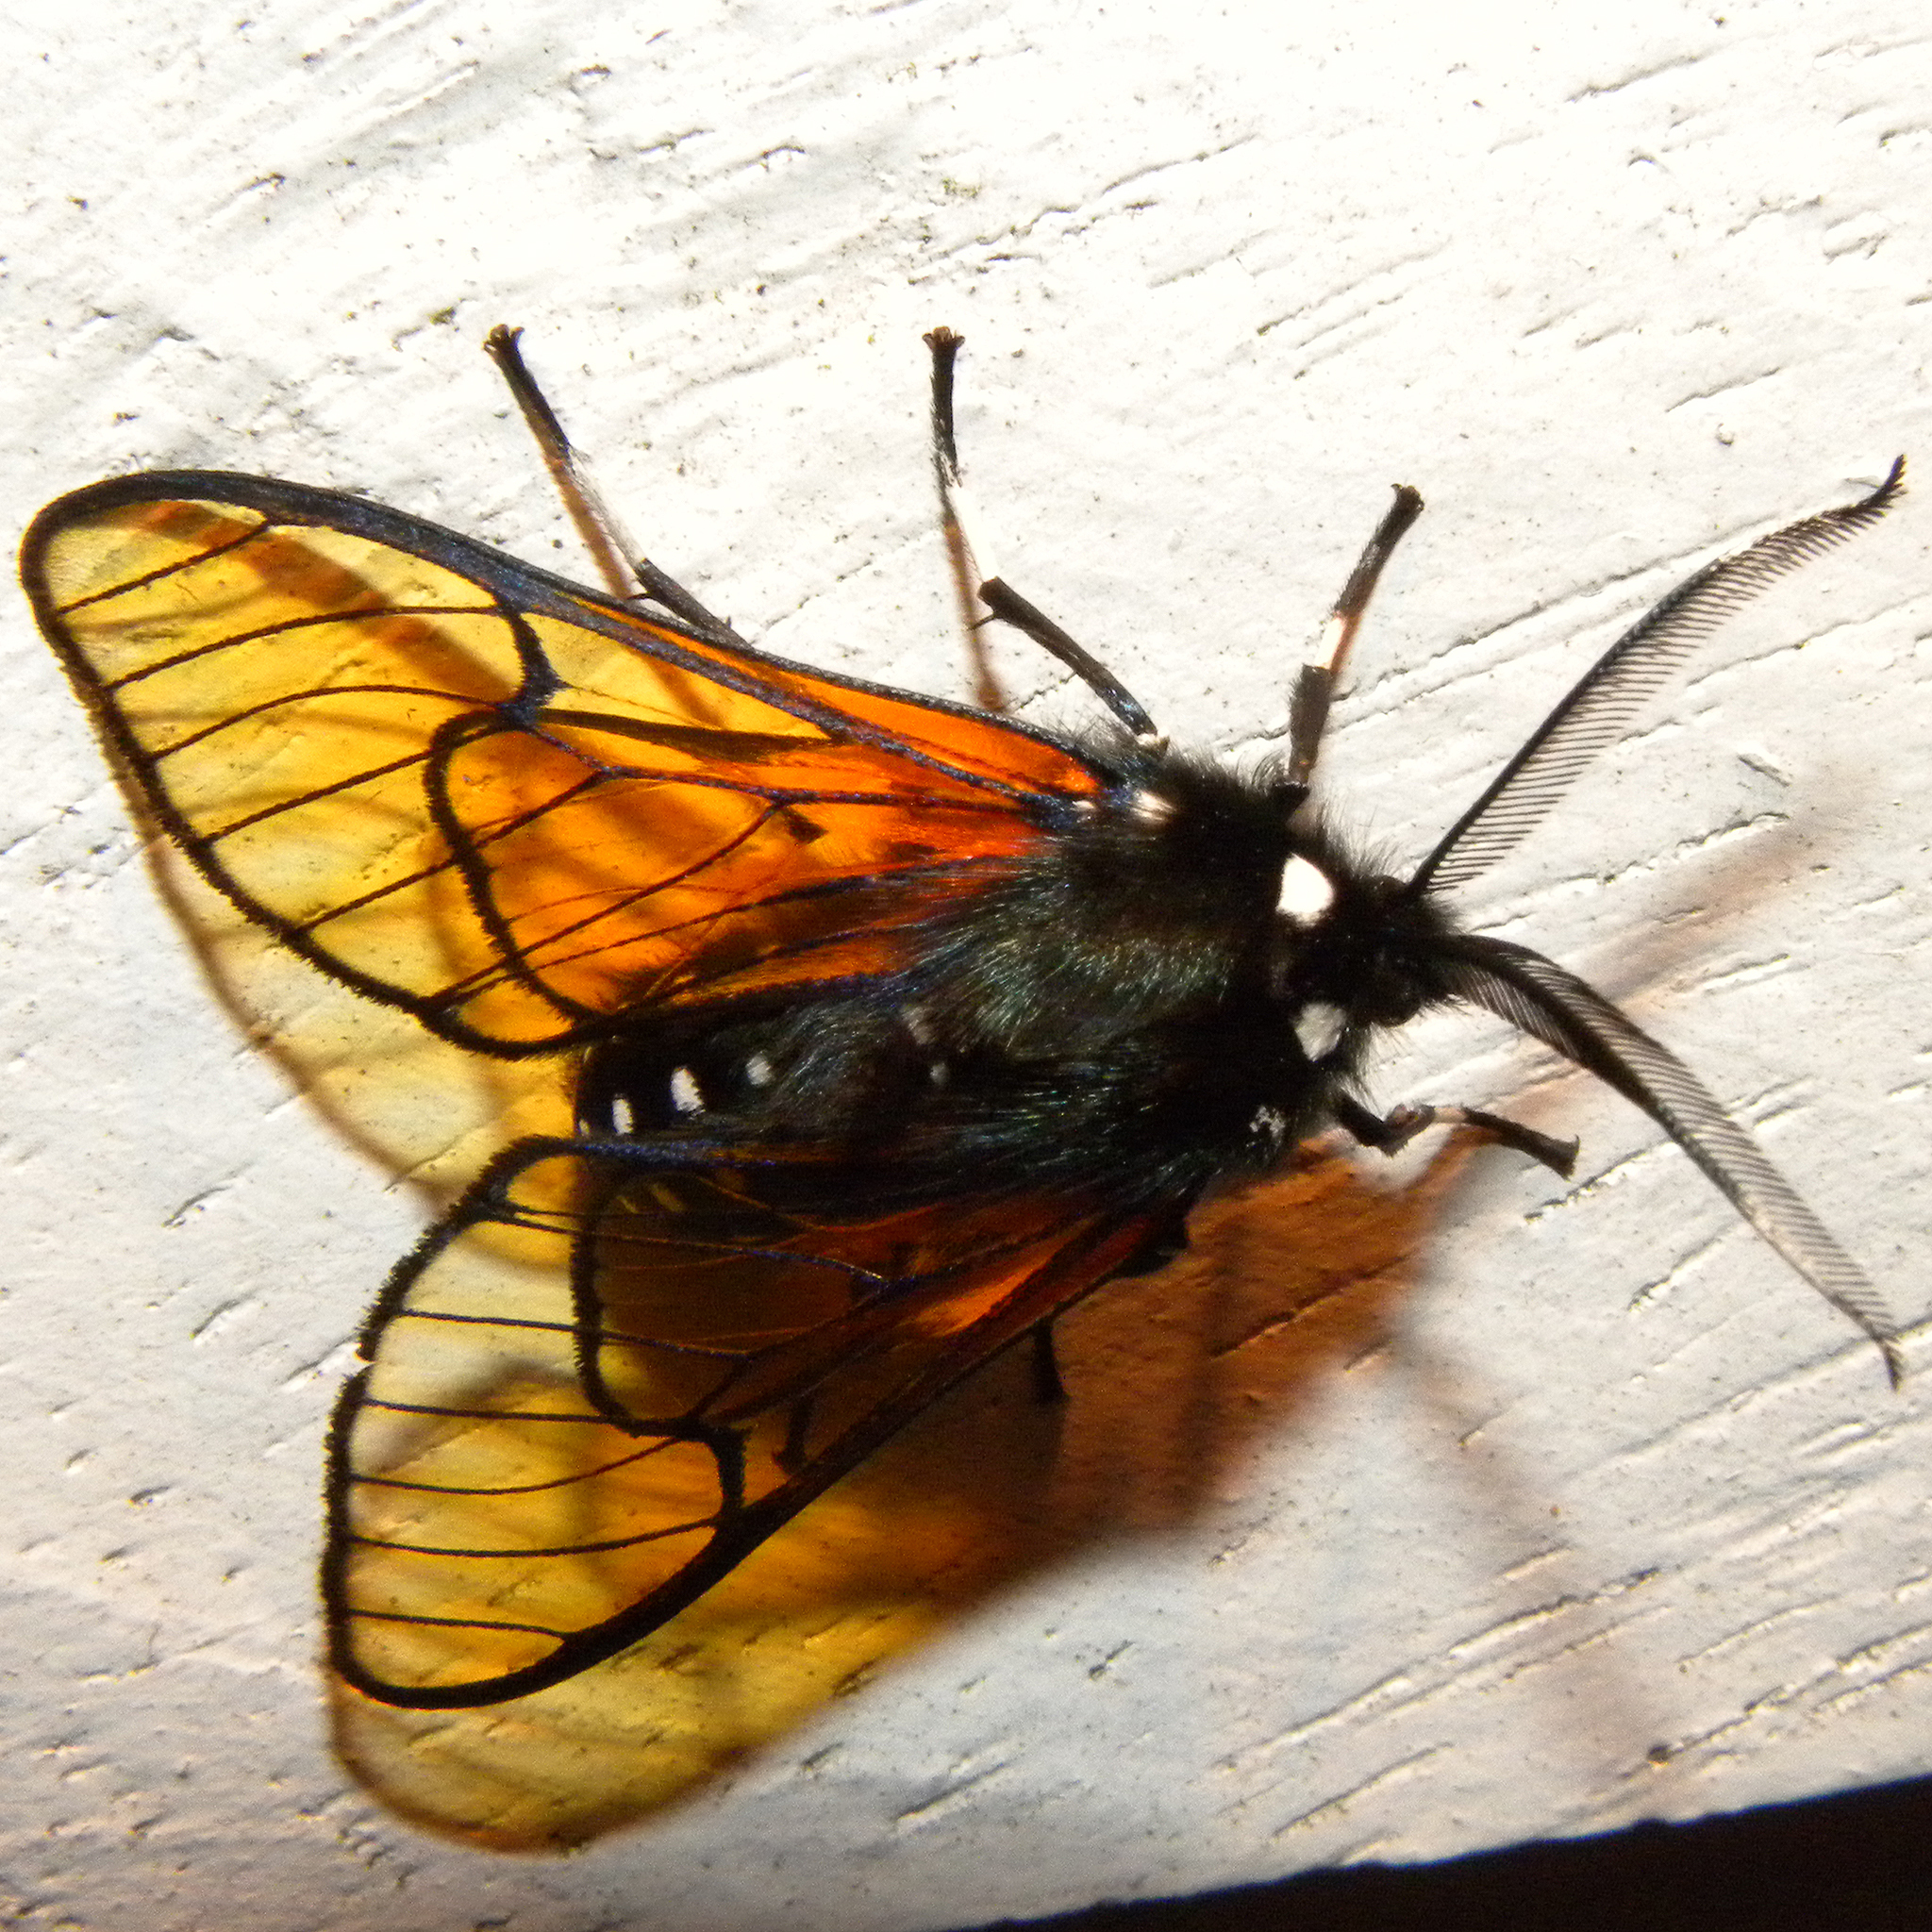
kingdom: Animalia
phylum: Arthropoda
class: Insecta
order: Lepidoptera
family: Erebidae
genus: Dasysphinx
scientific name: Dasysphinx volatilis
